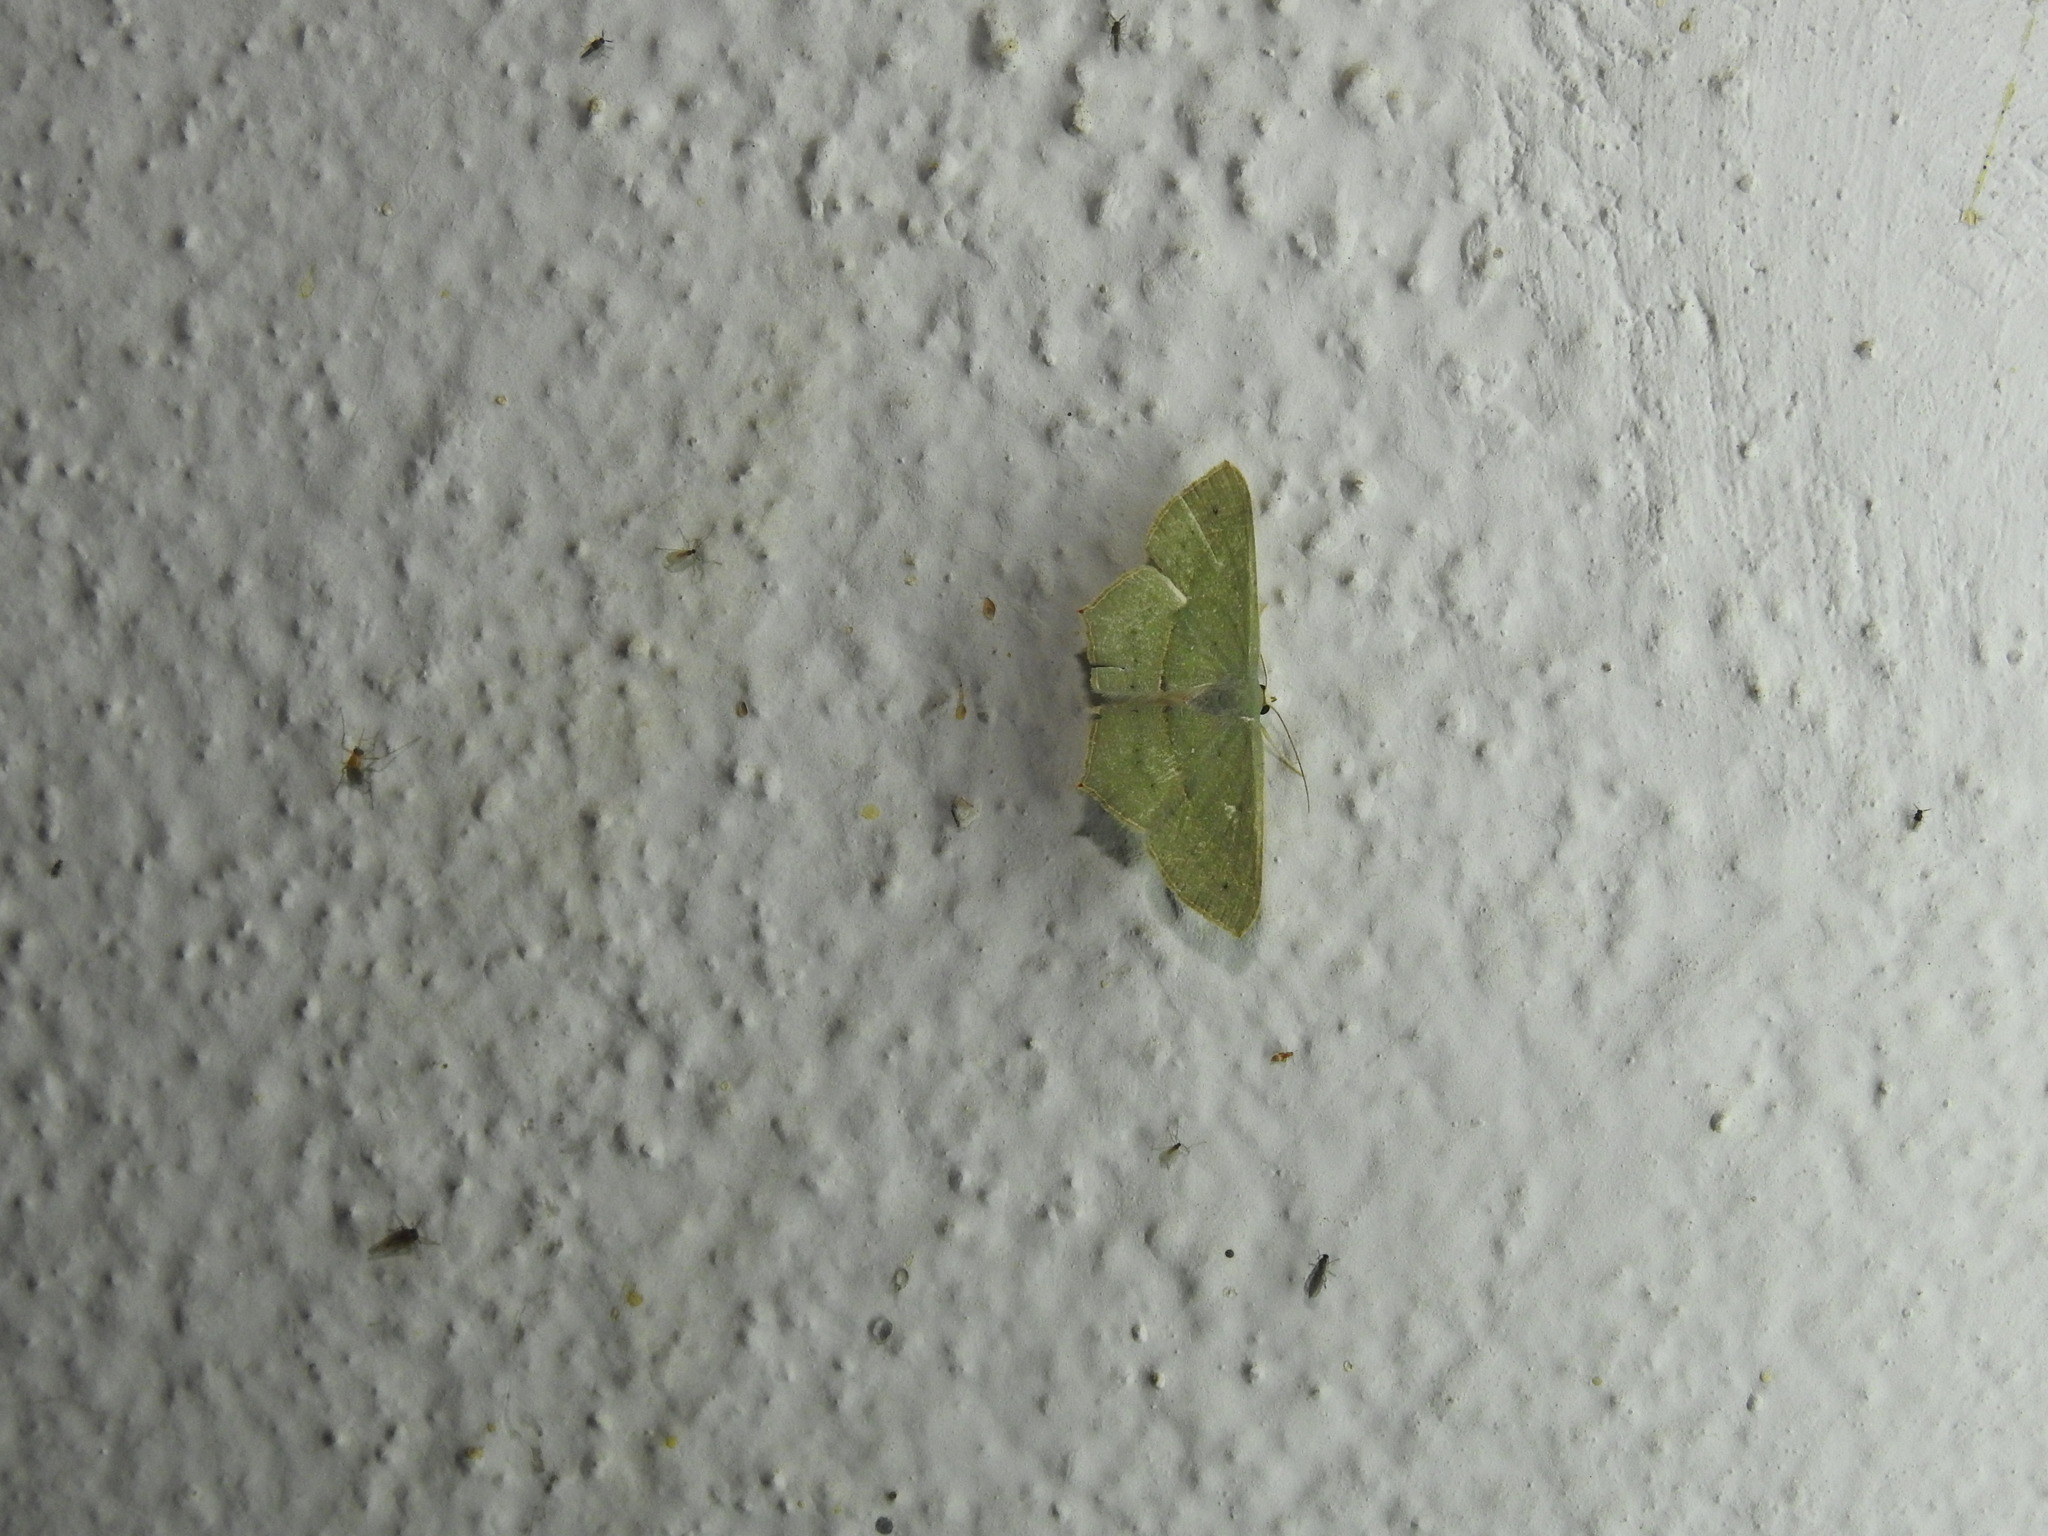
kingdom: Animalia
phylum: Arthropoda
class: Insecta
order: Lepidoptera
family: Geometridae
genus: Traminda
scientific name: Traminda mundissima
